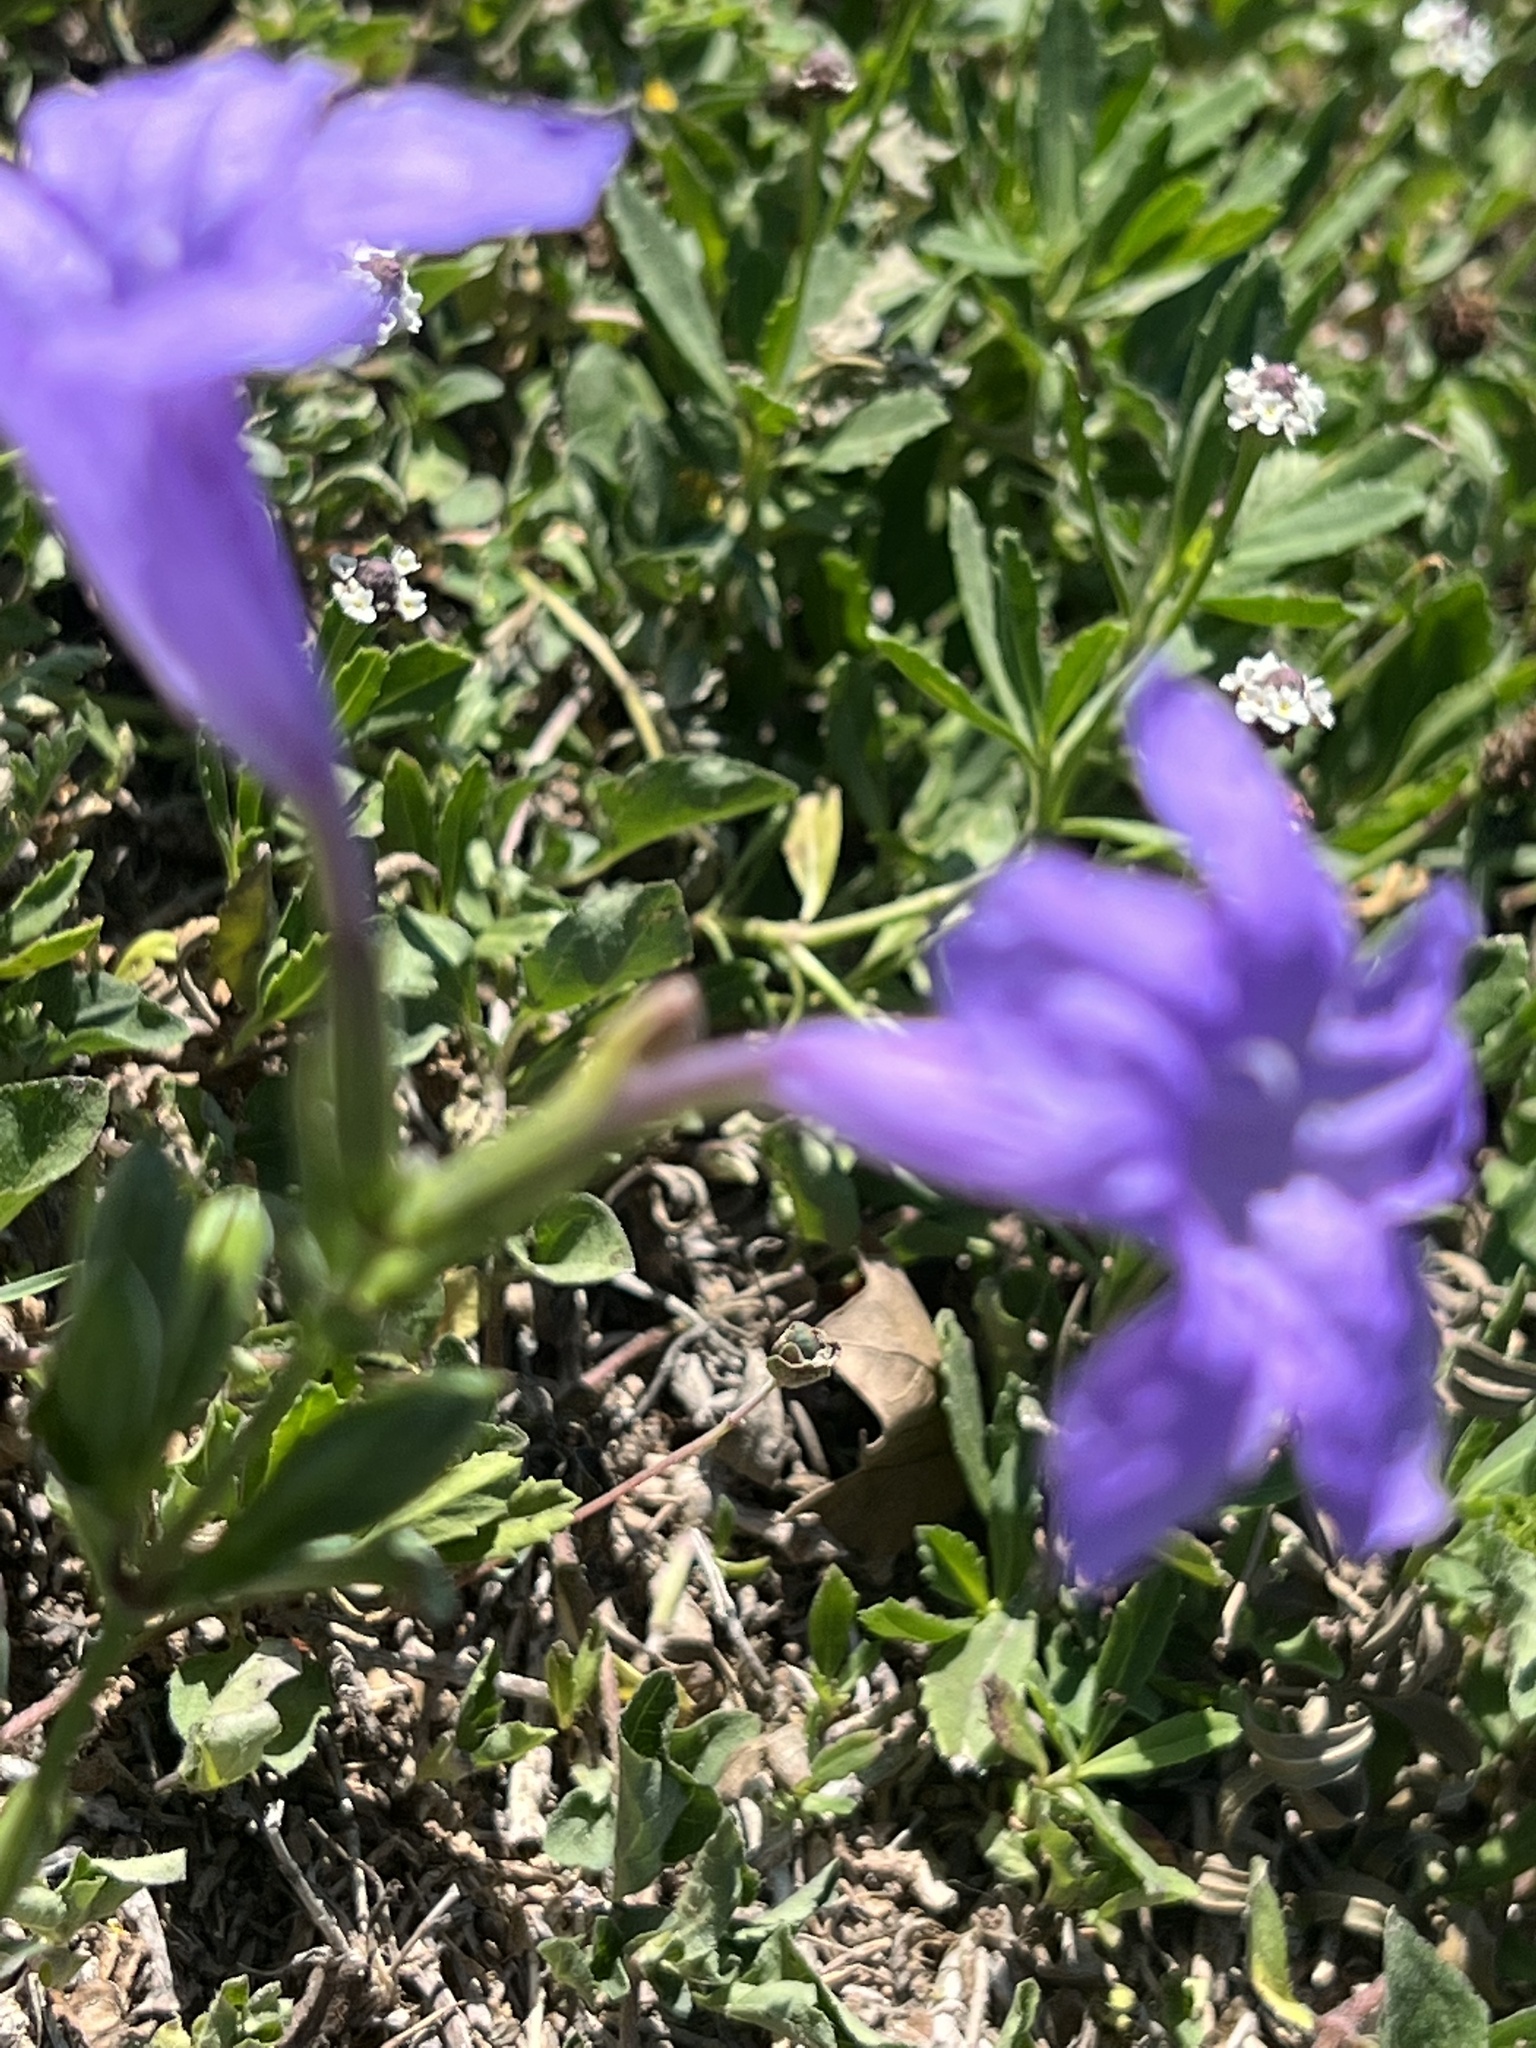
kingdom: Plantae
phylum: Tracheophyta
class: Magnoliopsida
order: Lamiales
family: Acanthaceae
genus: Ruellia
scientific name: Ruellia ciliatiflora
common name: Hairyflower wild petunia
